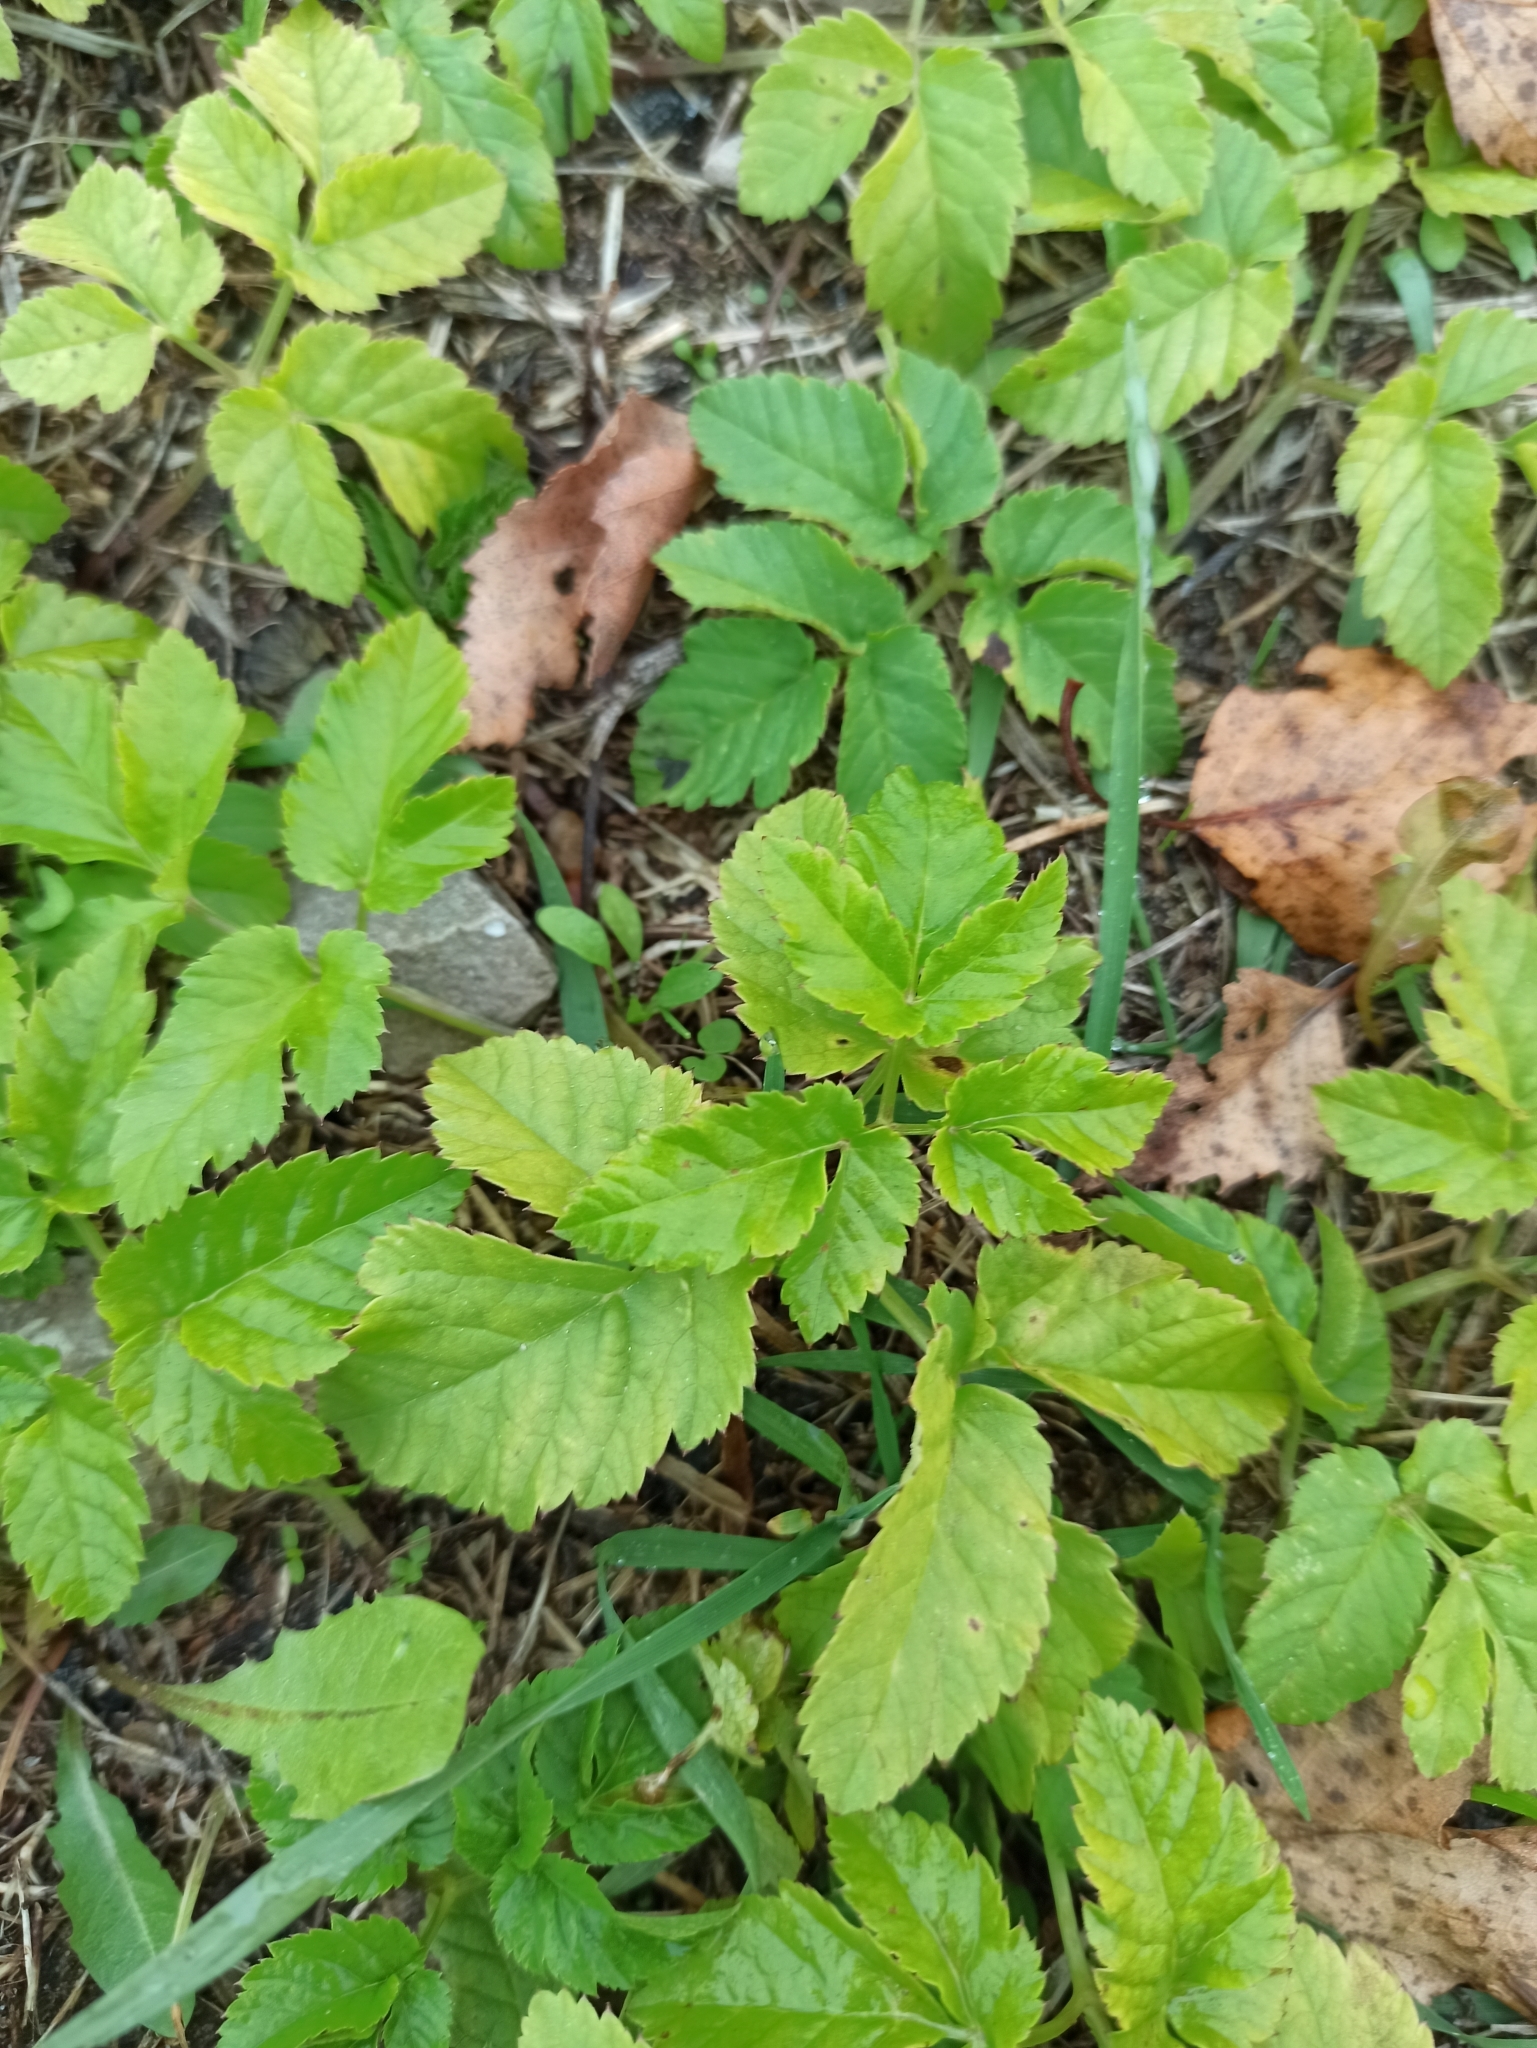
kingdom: Plantae
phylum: Tracheophyta
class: Magnoliopsida
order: Apiales
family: Apiaceae
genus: Aegopodium
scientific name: Aegopodium podagraria
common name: Ground-elder
